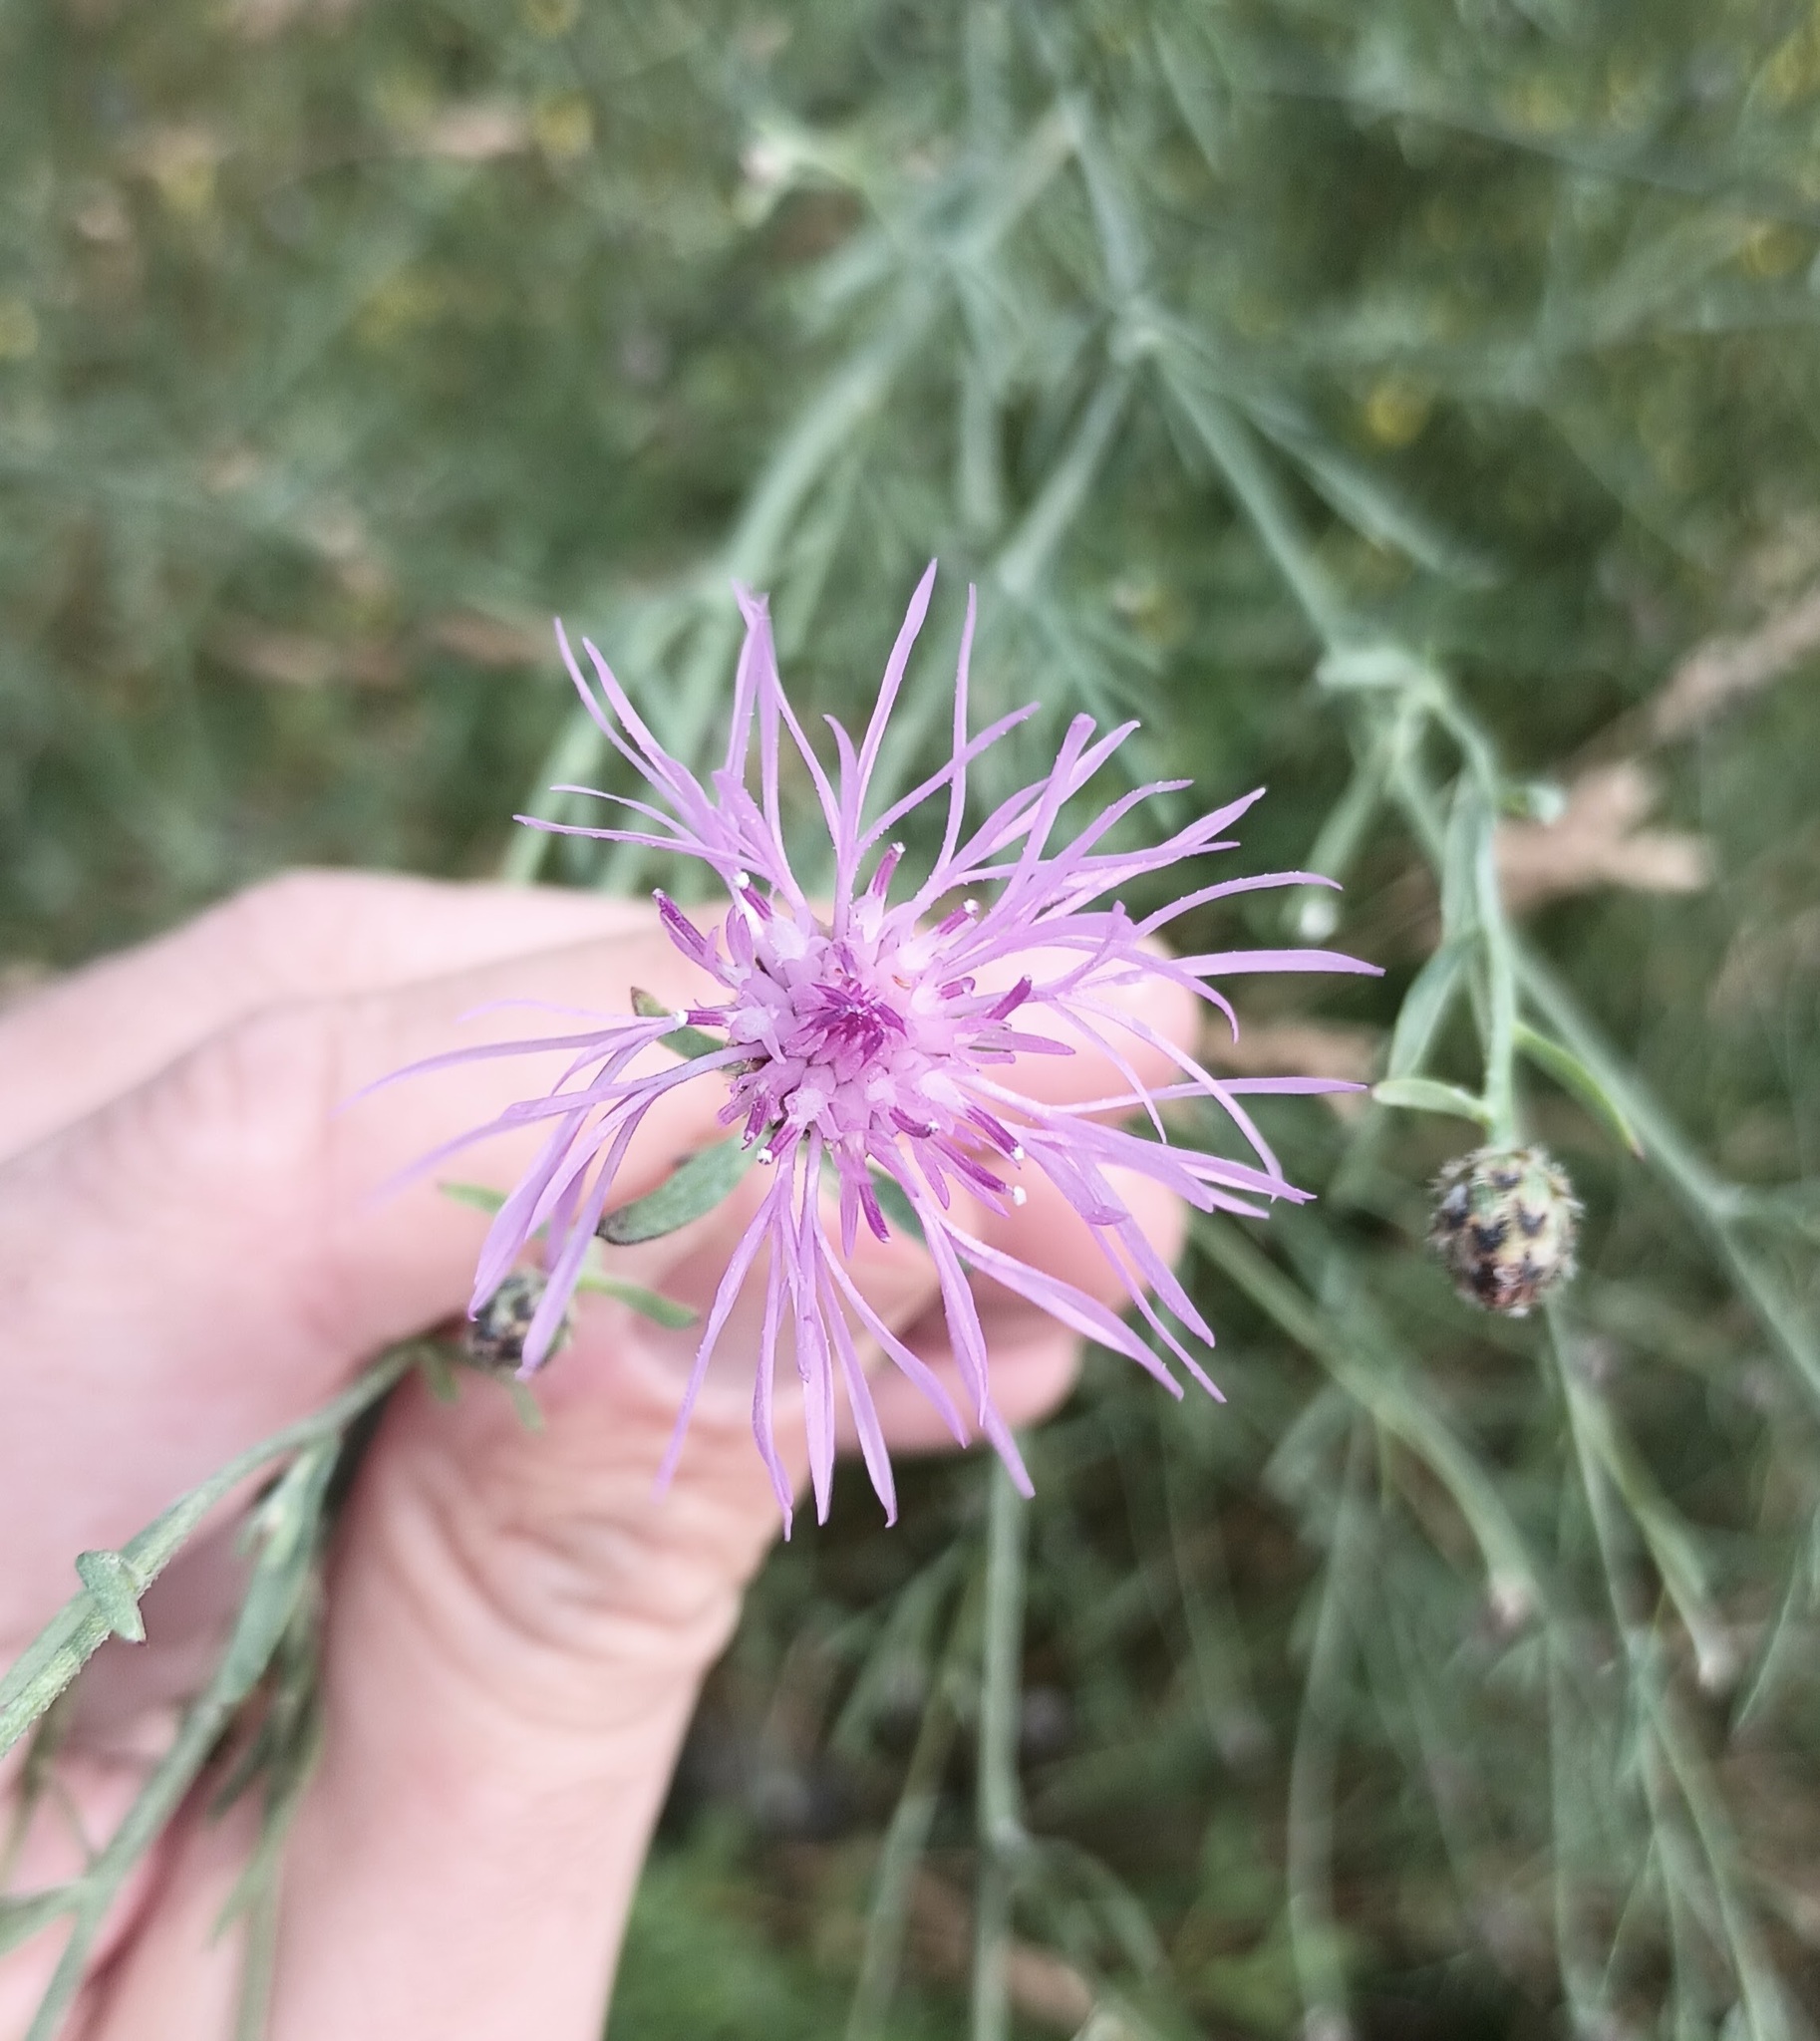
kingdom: Plantae
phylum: Tracheophyta
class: Magnoliopsida
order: Asterales
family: Asteraceae
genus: Centaurea
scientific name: Centaurea stoebe
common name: Spotted knapweed
